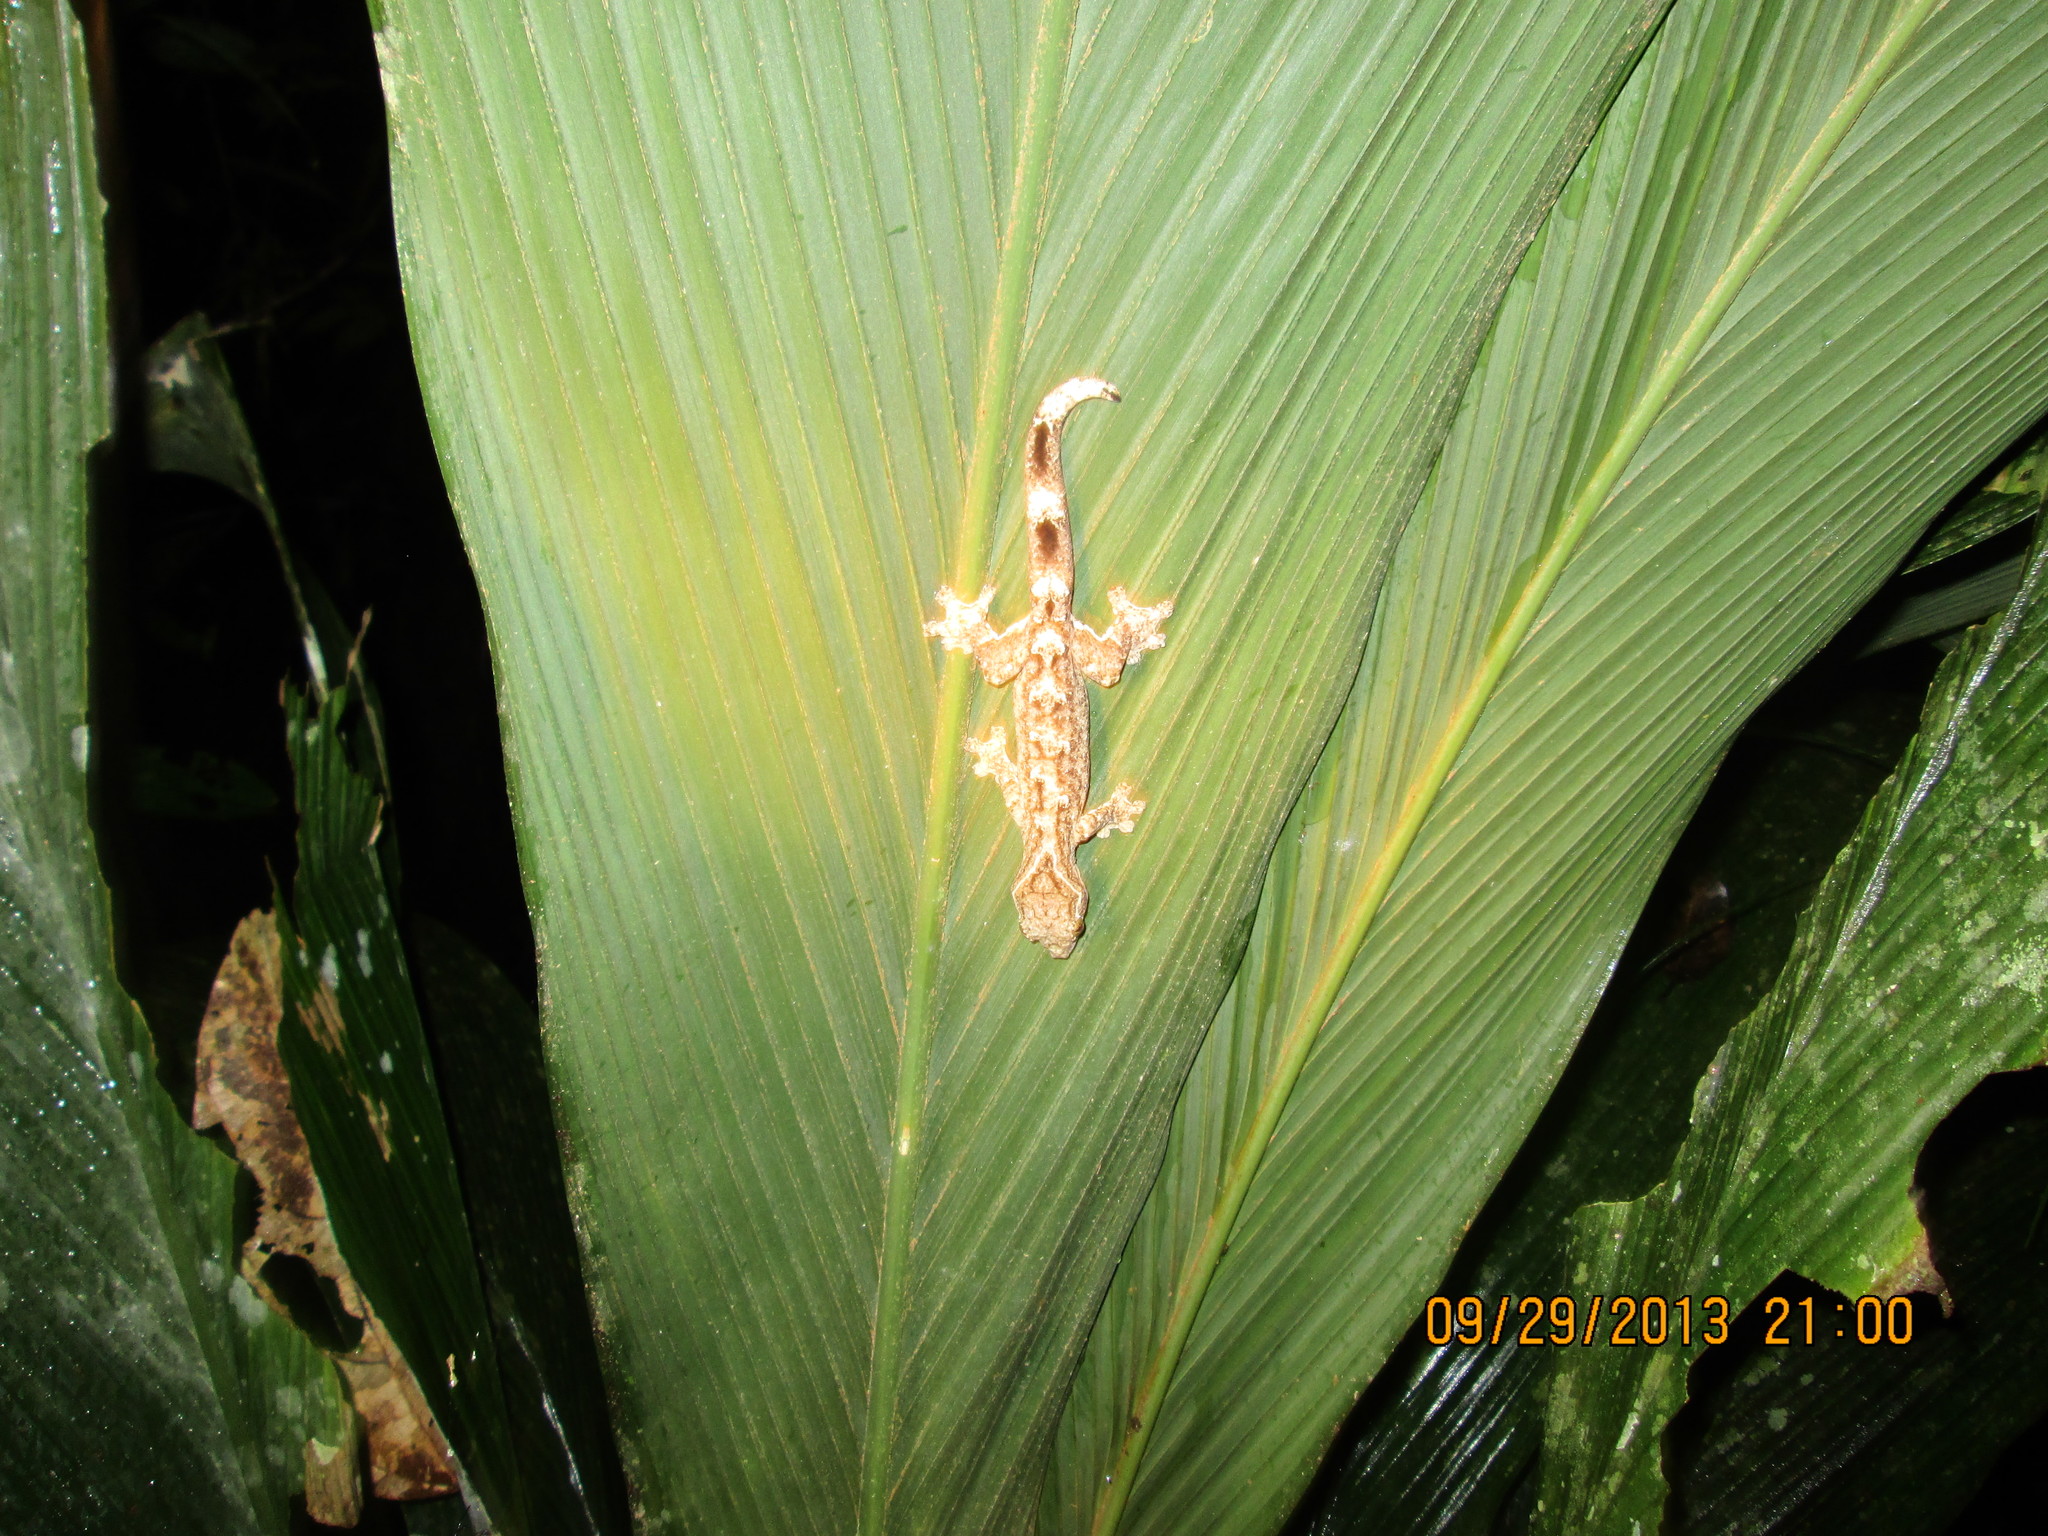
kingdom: Animalia
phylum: Chordata
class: Squamata
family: Phyllodactylidae
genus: Thecadactylus
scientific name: Thecadactylus solimoensis
